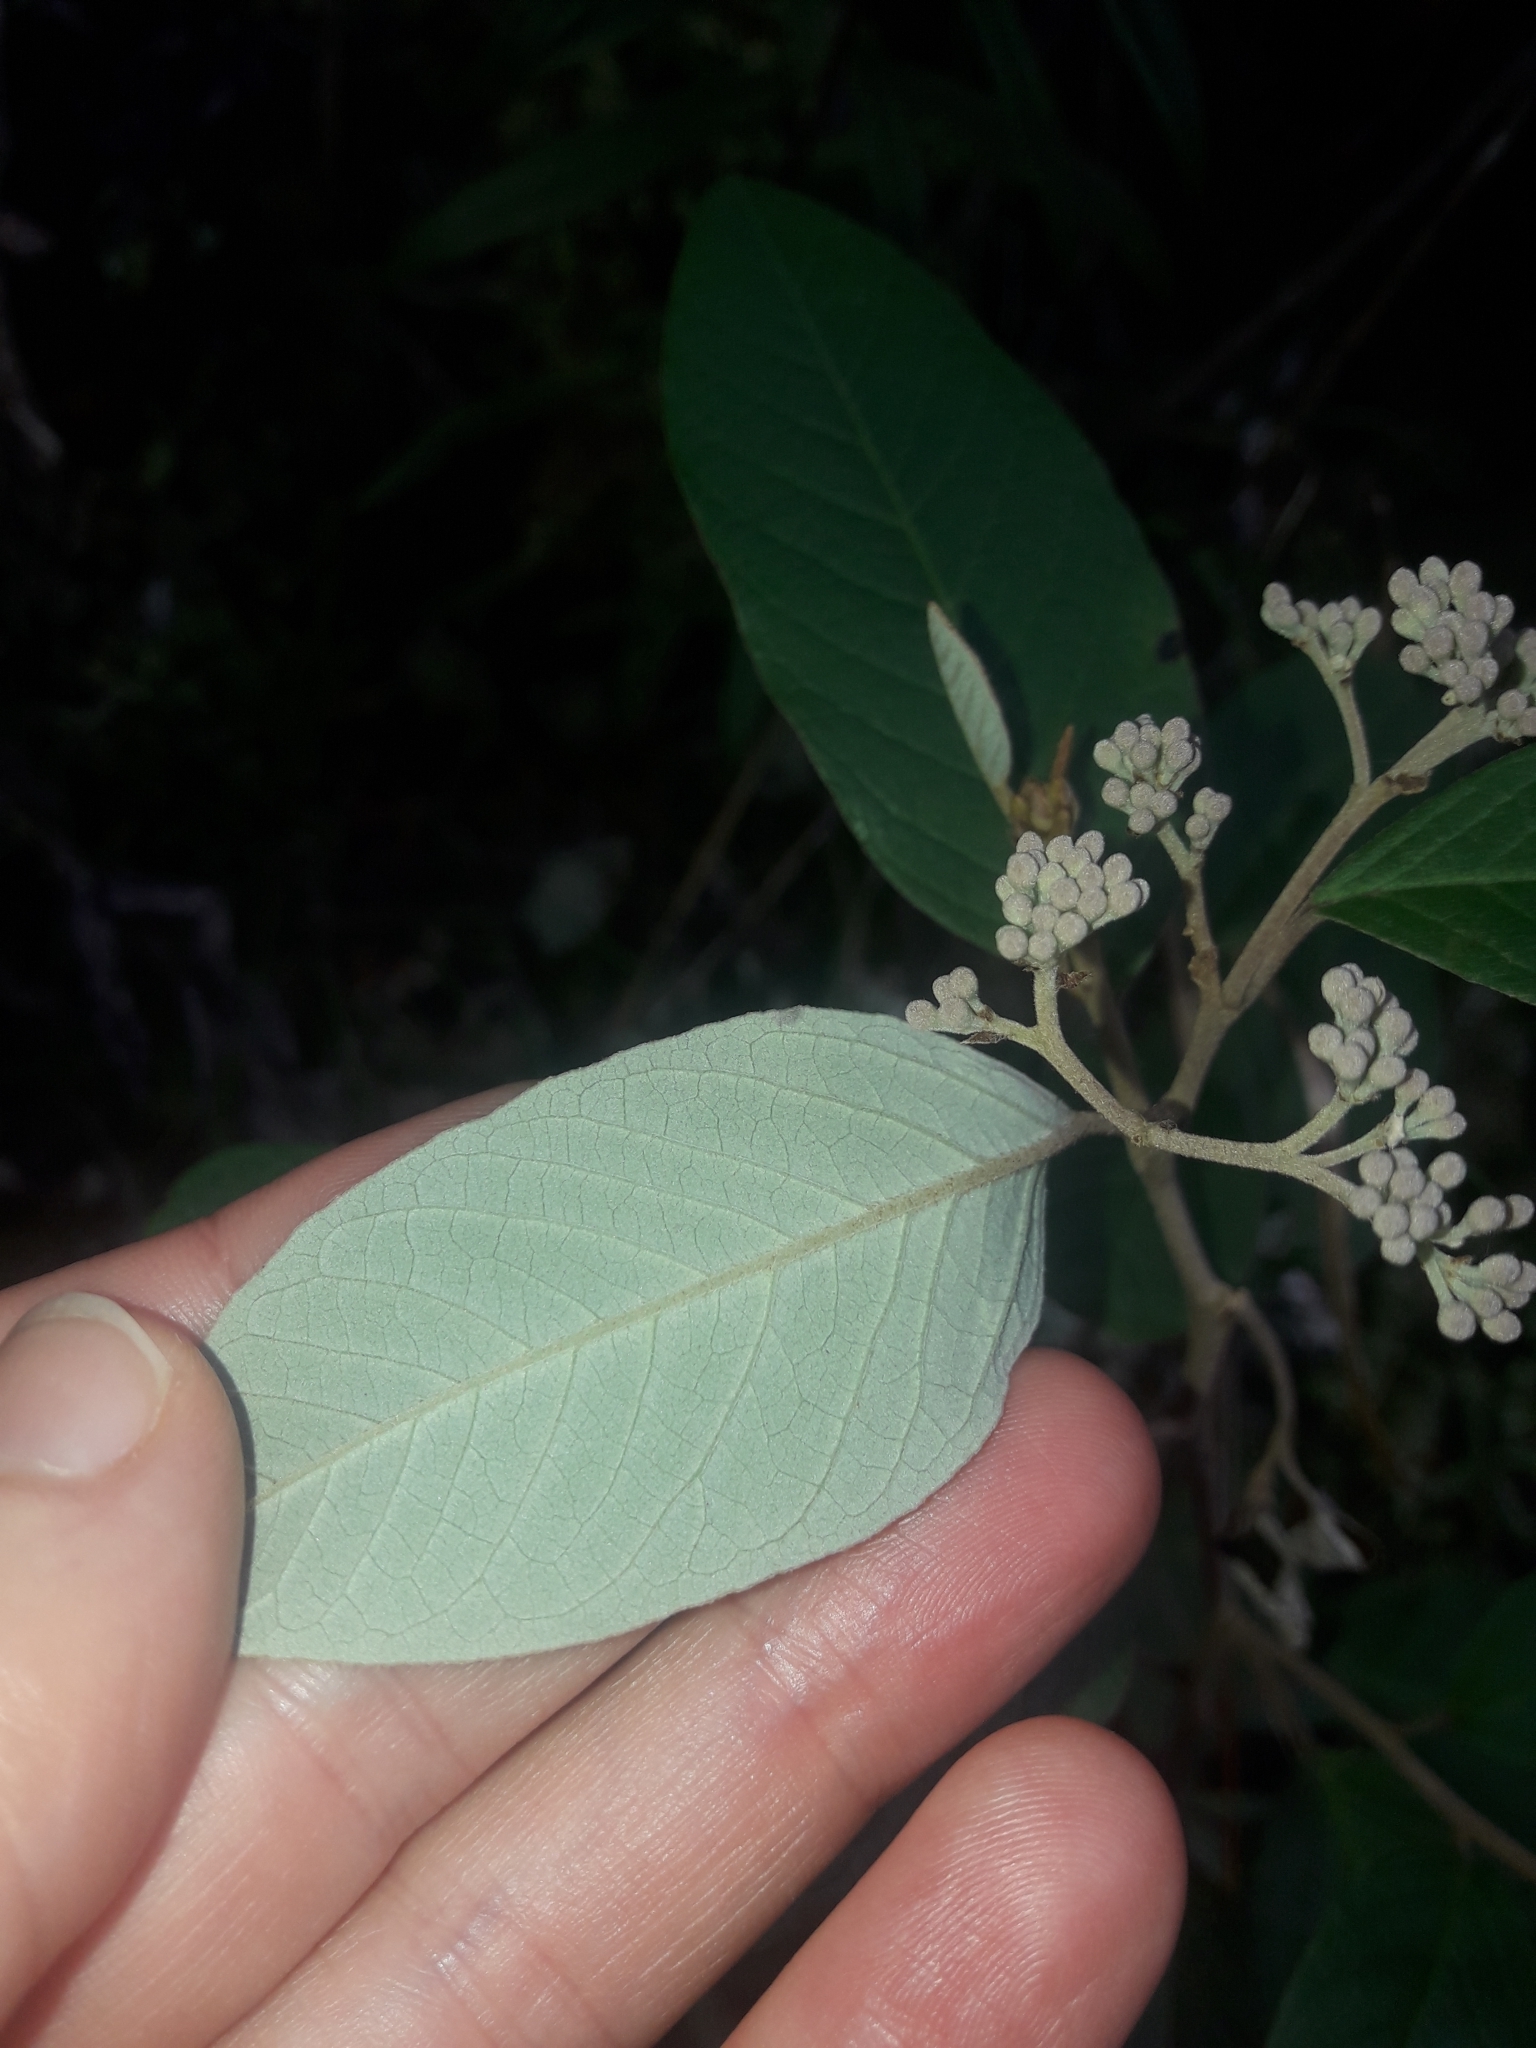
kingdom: Plantae
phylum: Tracheophyta
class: Magnoliopsida
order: Rosales
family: Rhamnaceae
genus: Pomaderris
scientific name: Pomaderris kumeraho
